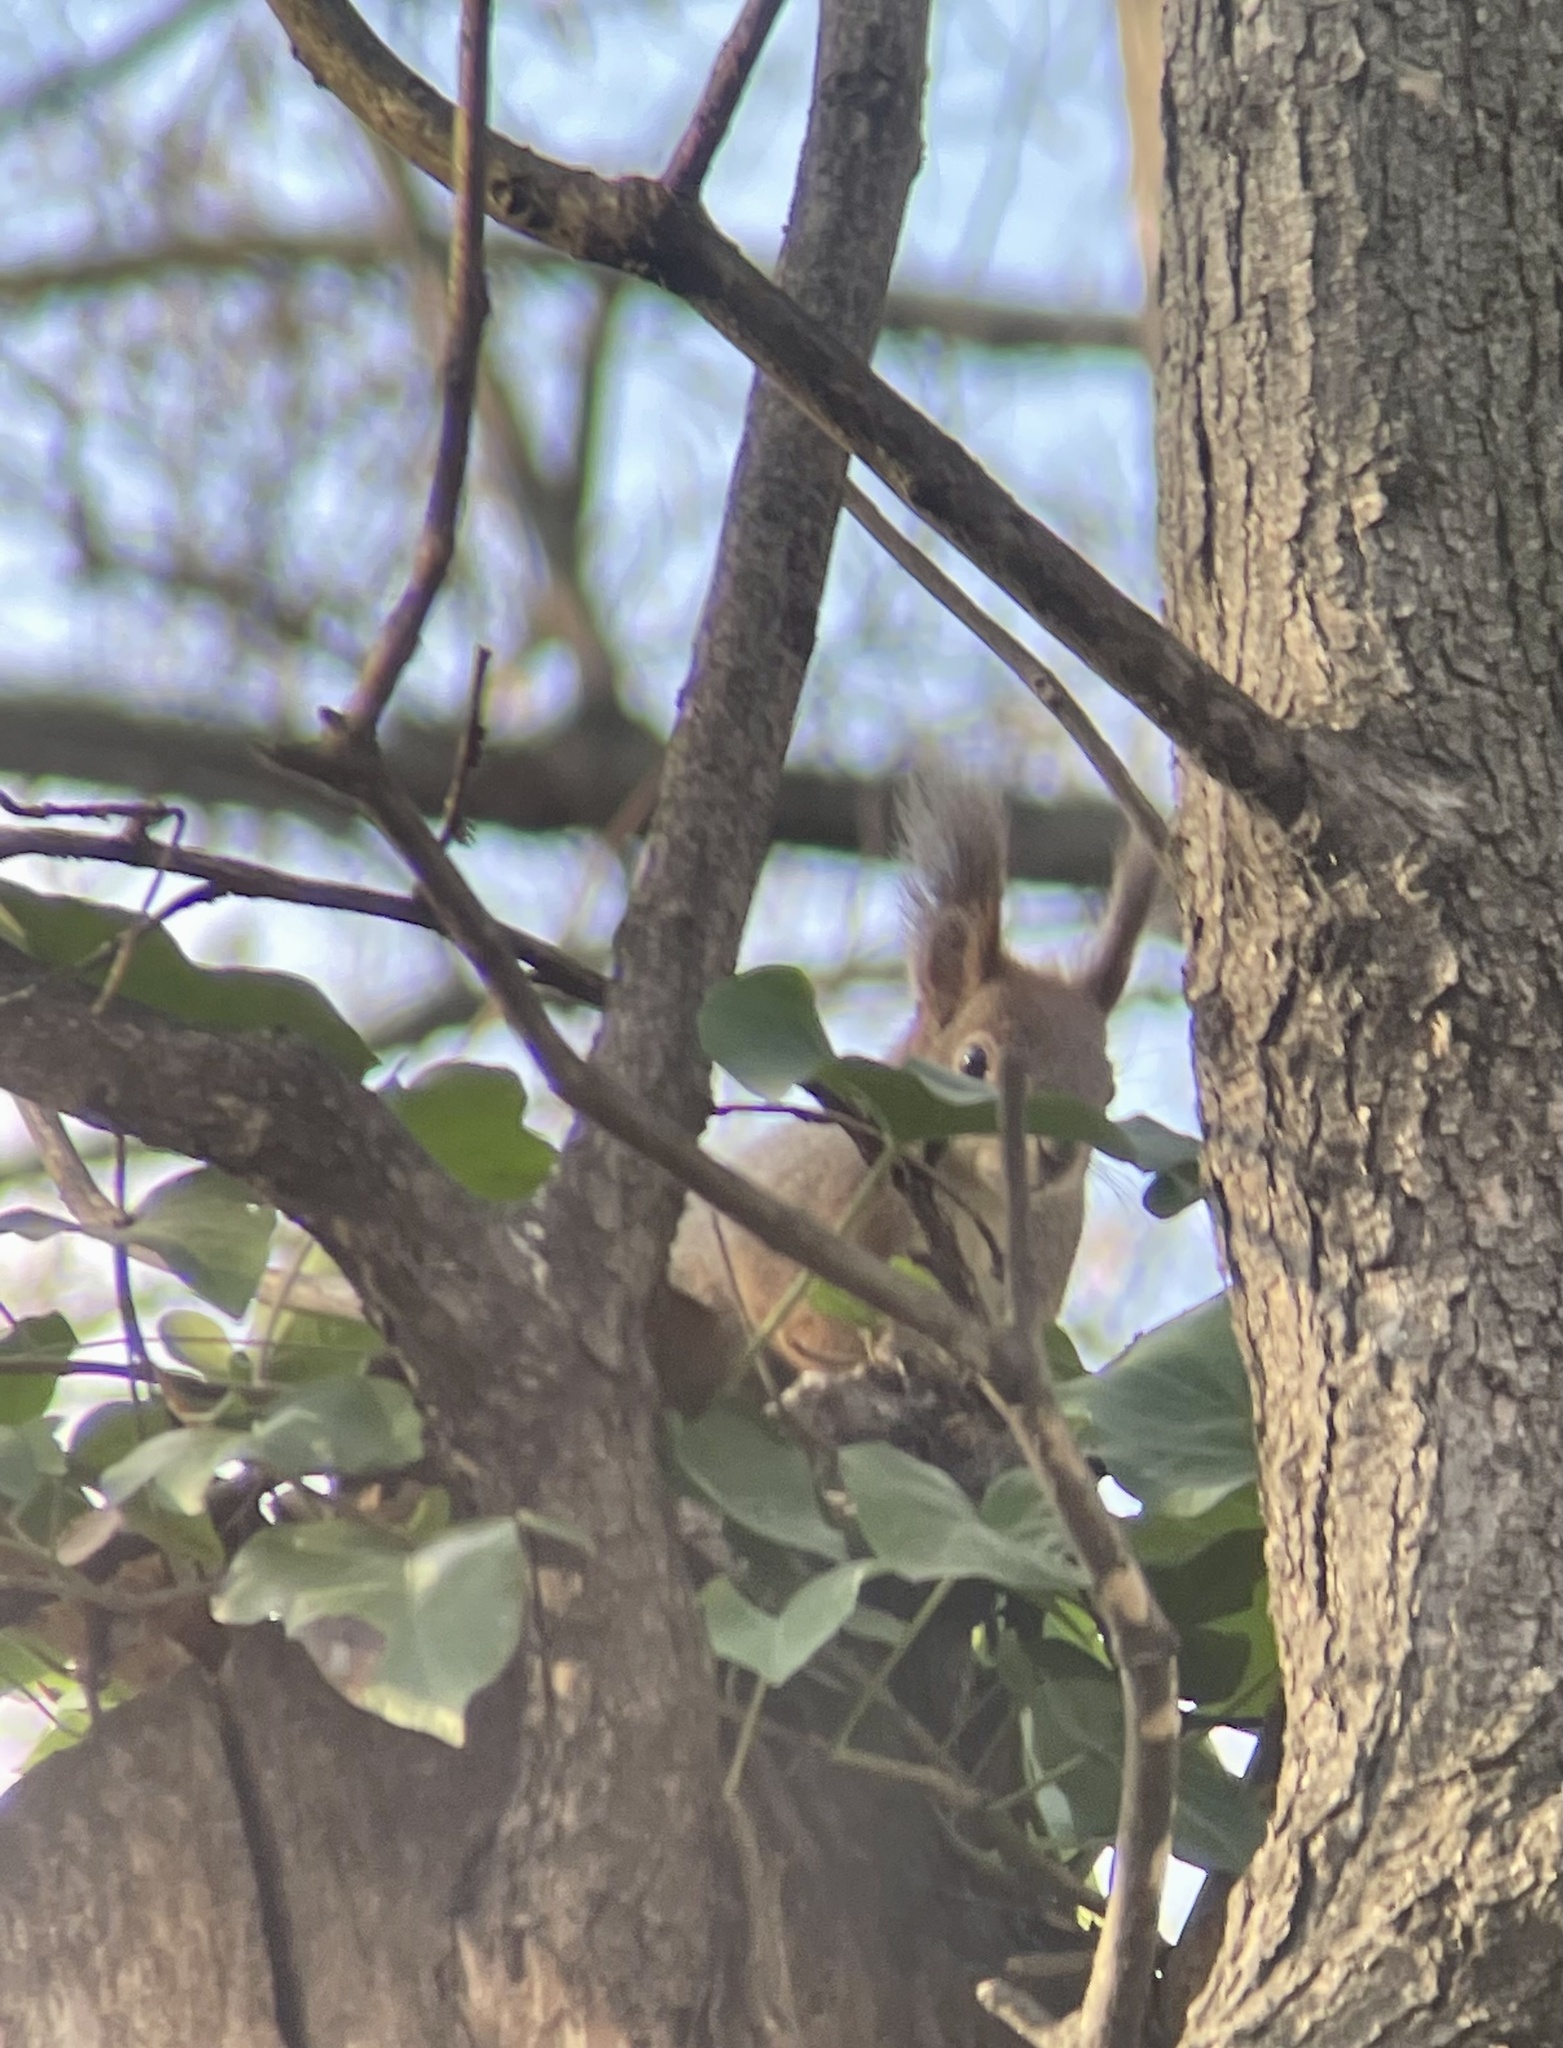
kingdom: Animalia
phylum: Chordata
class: Mammalia
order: Rodentia
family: Sciuridae
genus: Sciurus
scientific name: Sciurus vulgaris
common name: Eurasian red squirrel
